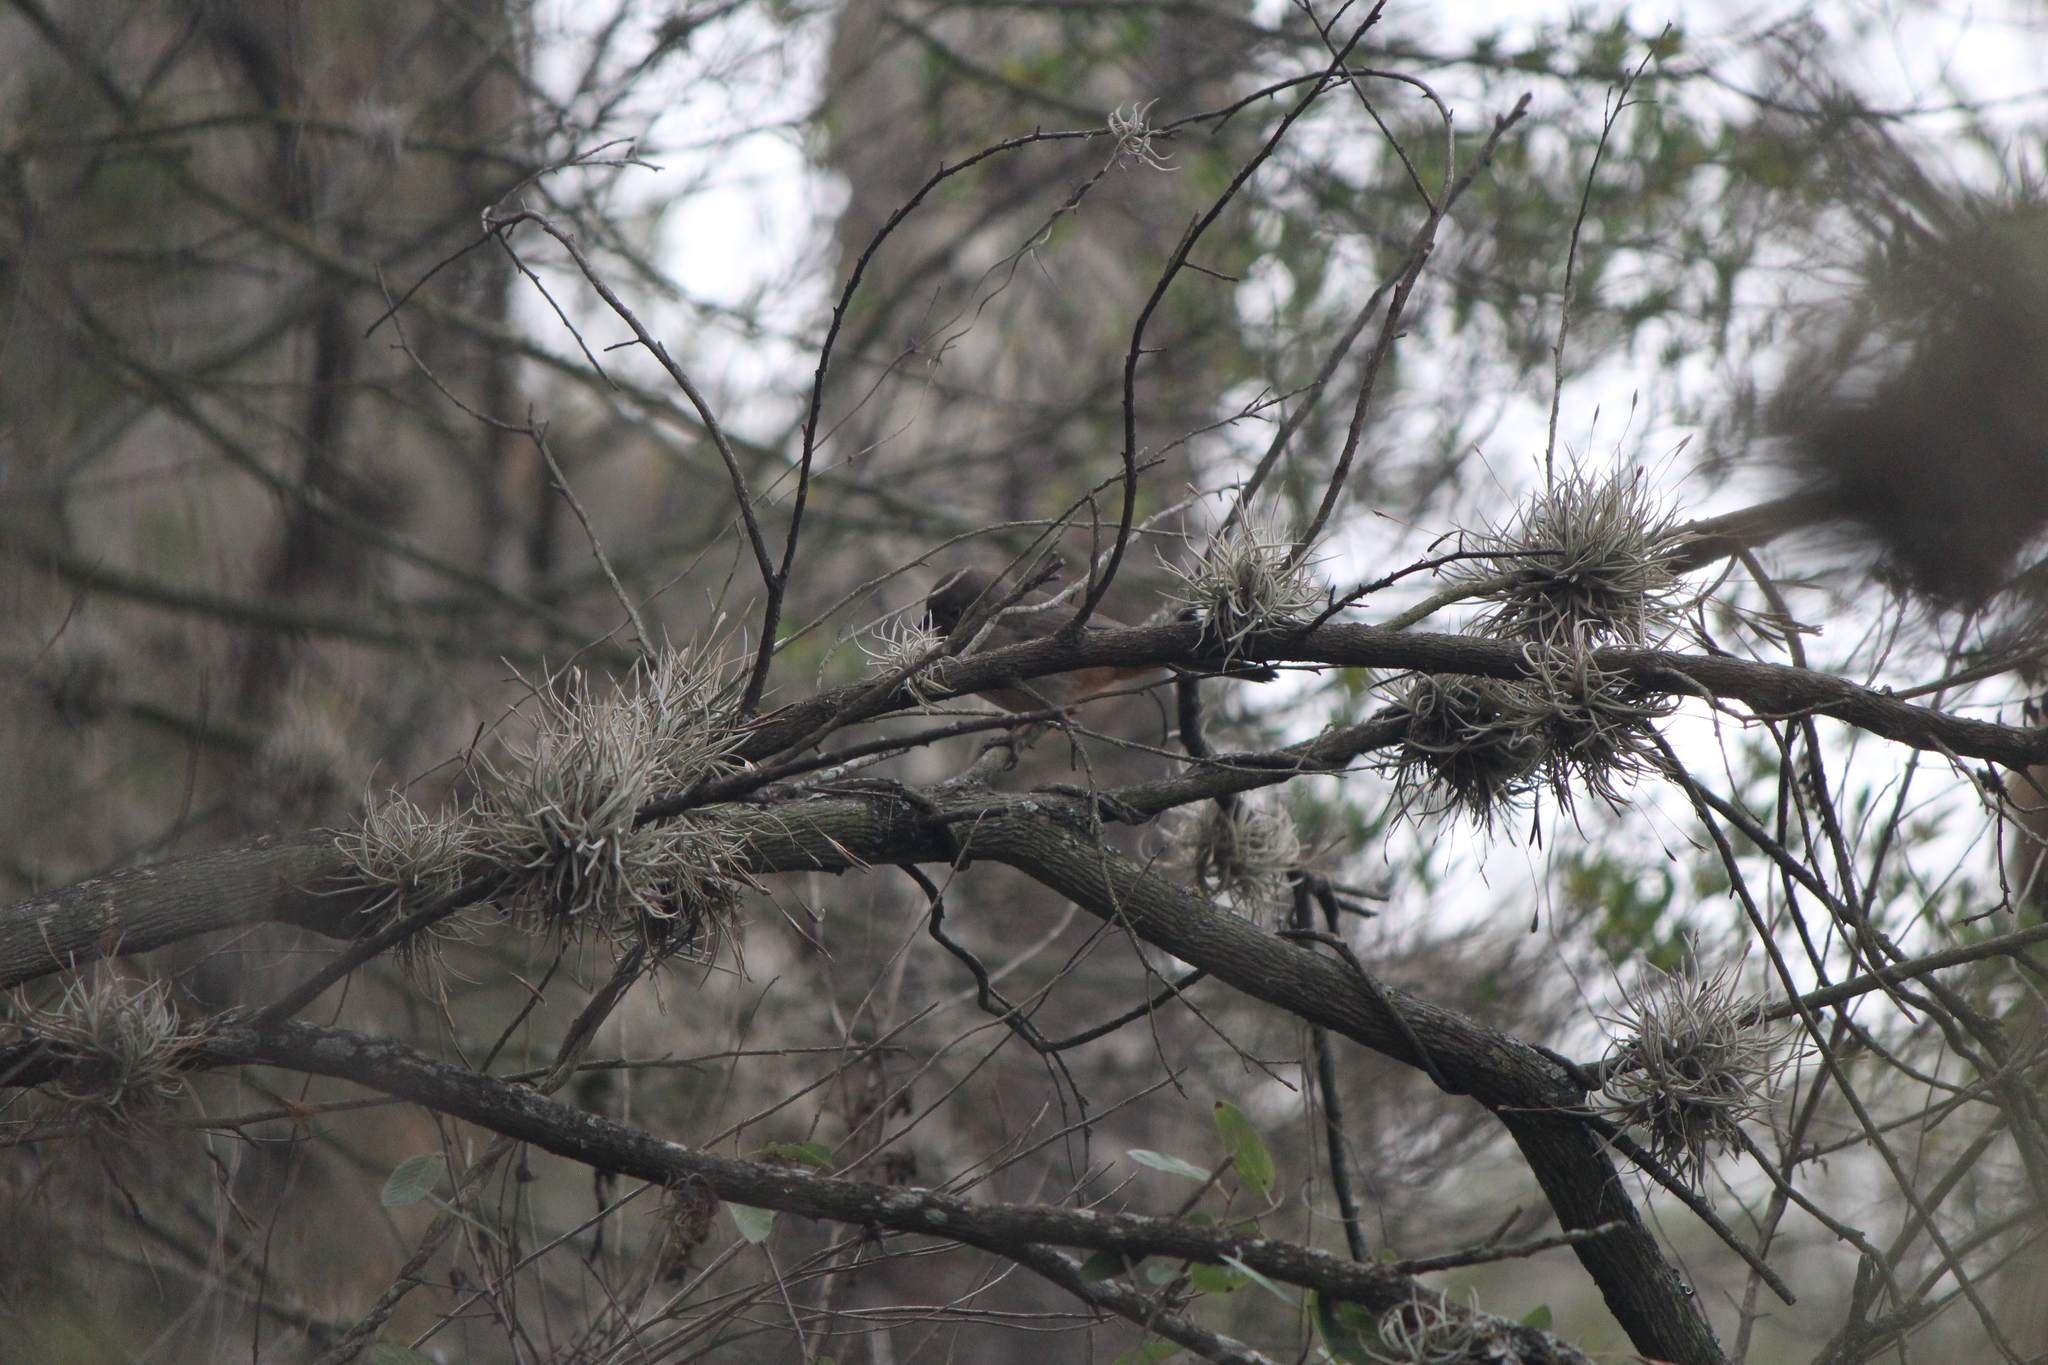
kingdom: Animalia
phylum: Chordata
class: Aves
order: Passeriformes
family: Passerellidae
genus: Melozone
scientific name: Melozone fusca
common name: Canyon towhee
